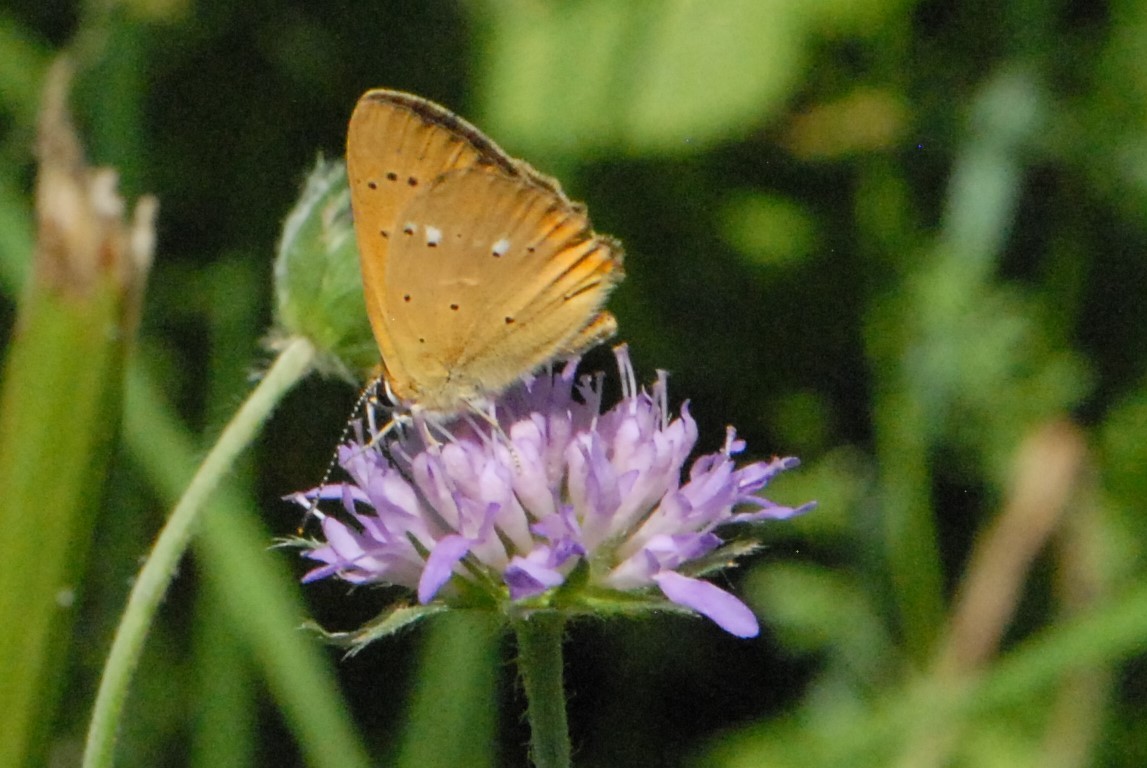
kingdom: Animalia
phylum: Arthropoda
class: Insecta
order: Lepidoptera
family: Lycaenidae
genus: Lycaena
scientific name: Lycaena virgaureae
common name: Scarce copper
